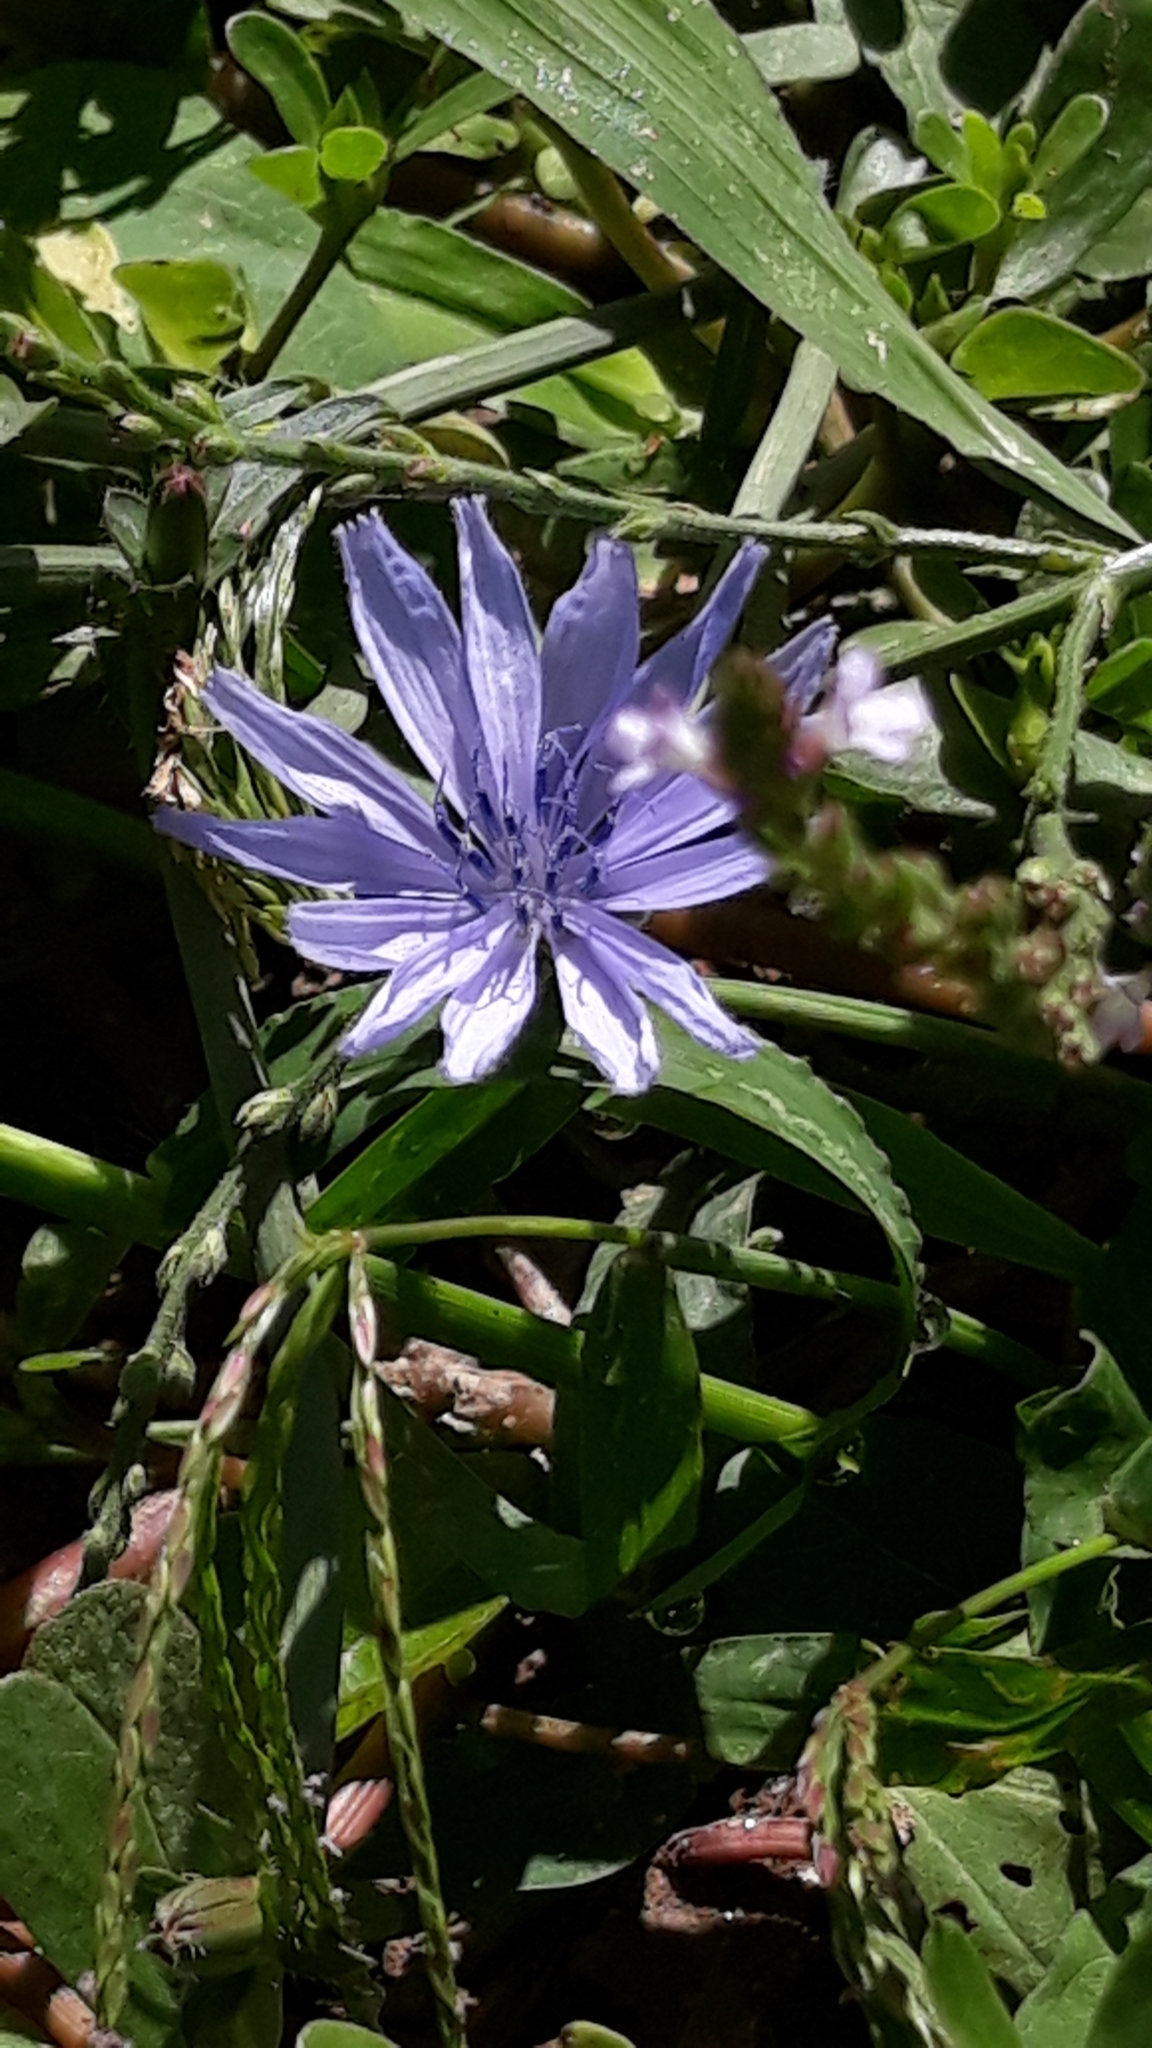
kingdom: Plantae
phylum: Tracheophyta
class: Magnoliopsida
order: Asterales
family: Asteraceae
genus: Cichorium
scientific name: Cichorium intybus
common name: Chicory
